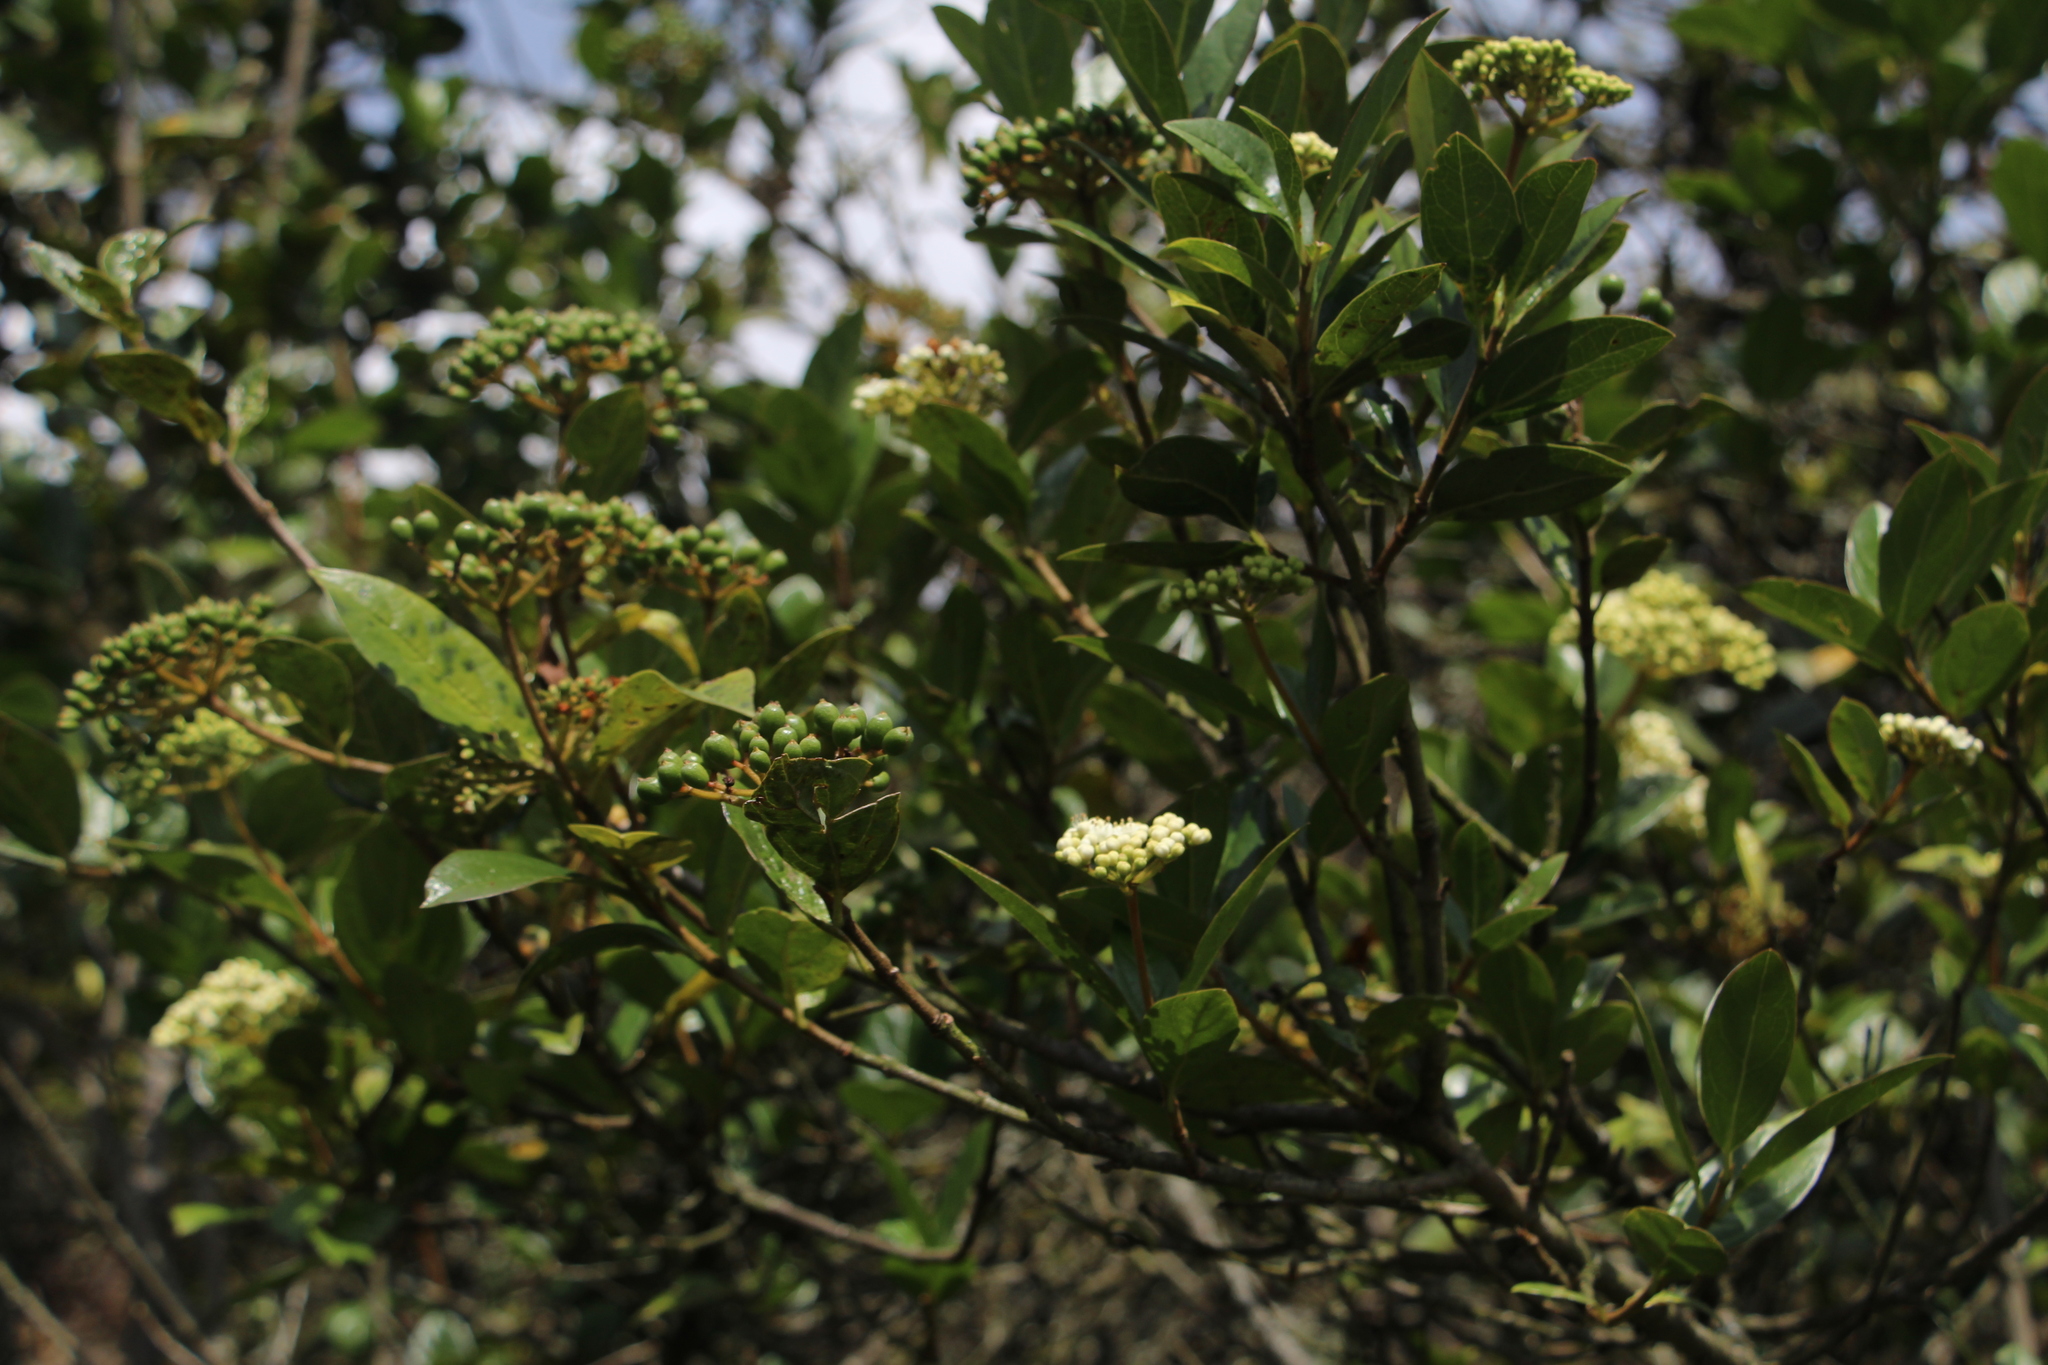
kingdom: Plantae
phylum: Tracheophyta
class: Magnoliopsida
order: Dipsacales
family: Viburnaceae
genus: Viburnum
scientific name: Viburnum triphyllum
